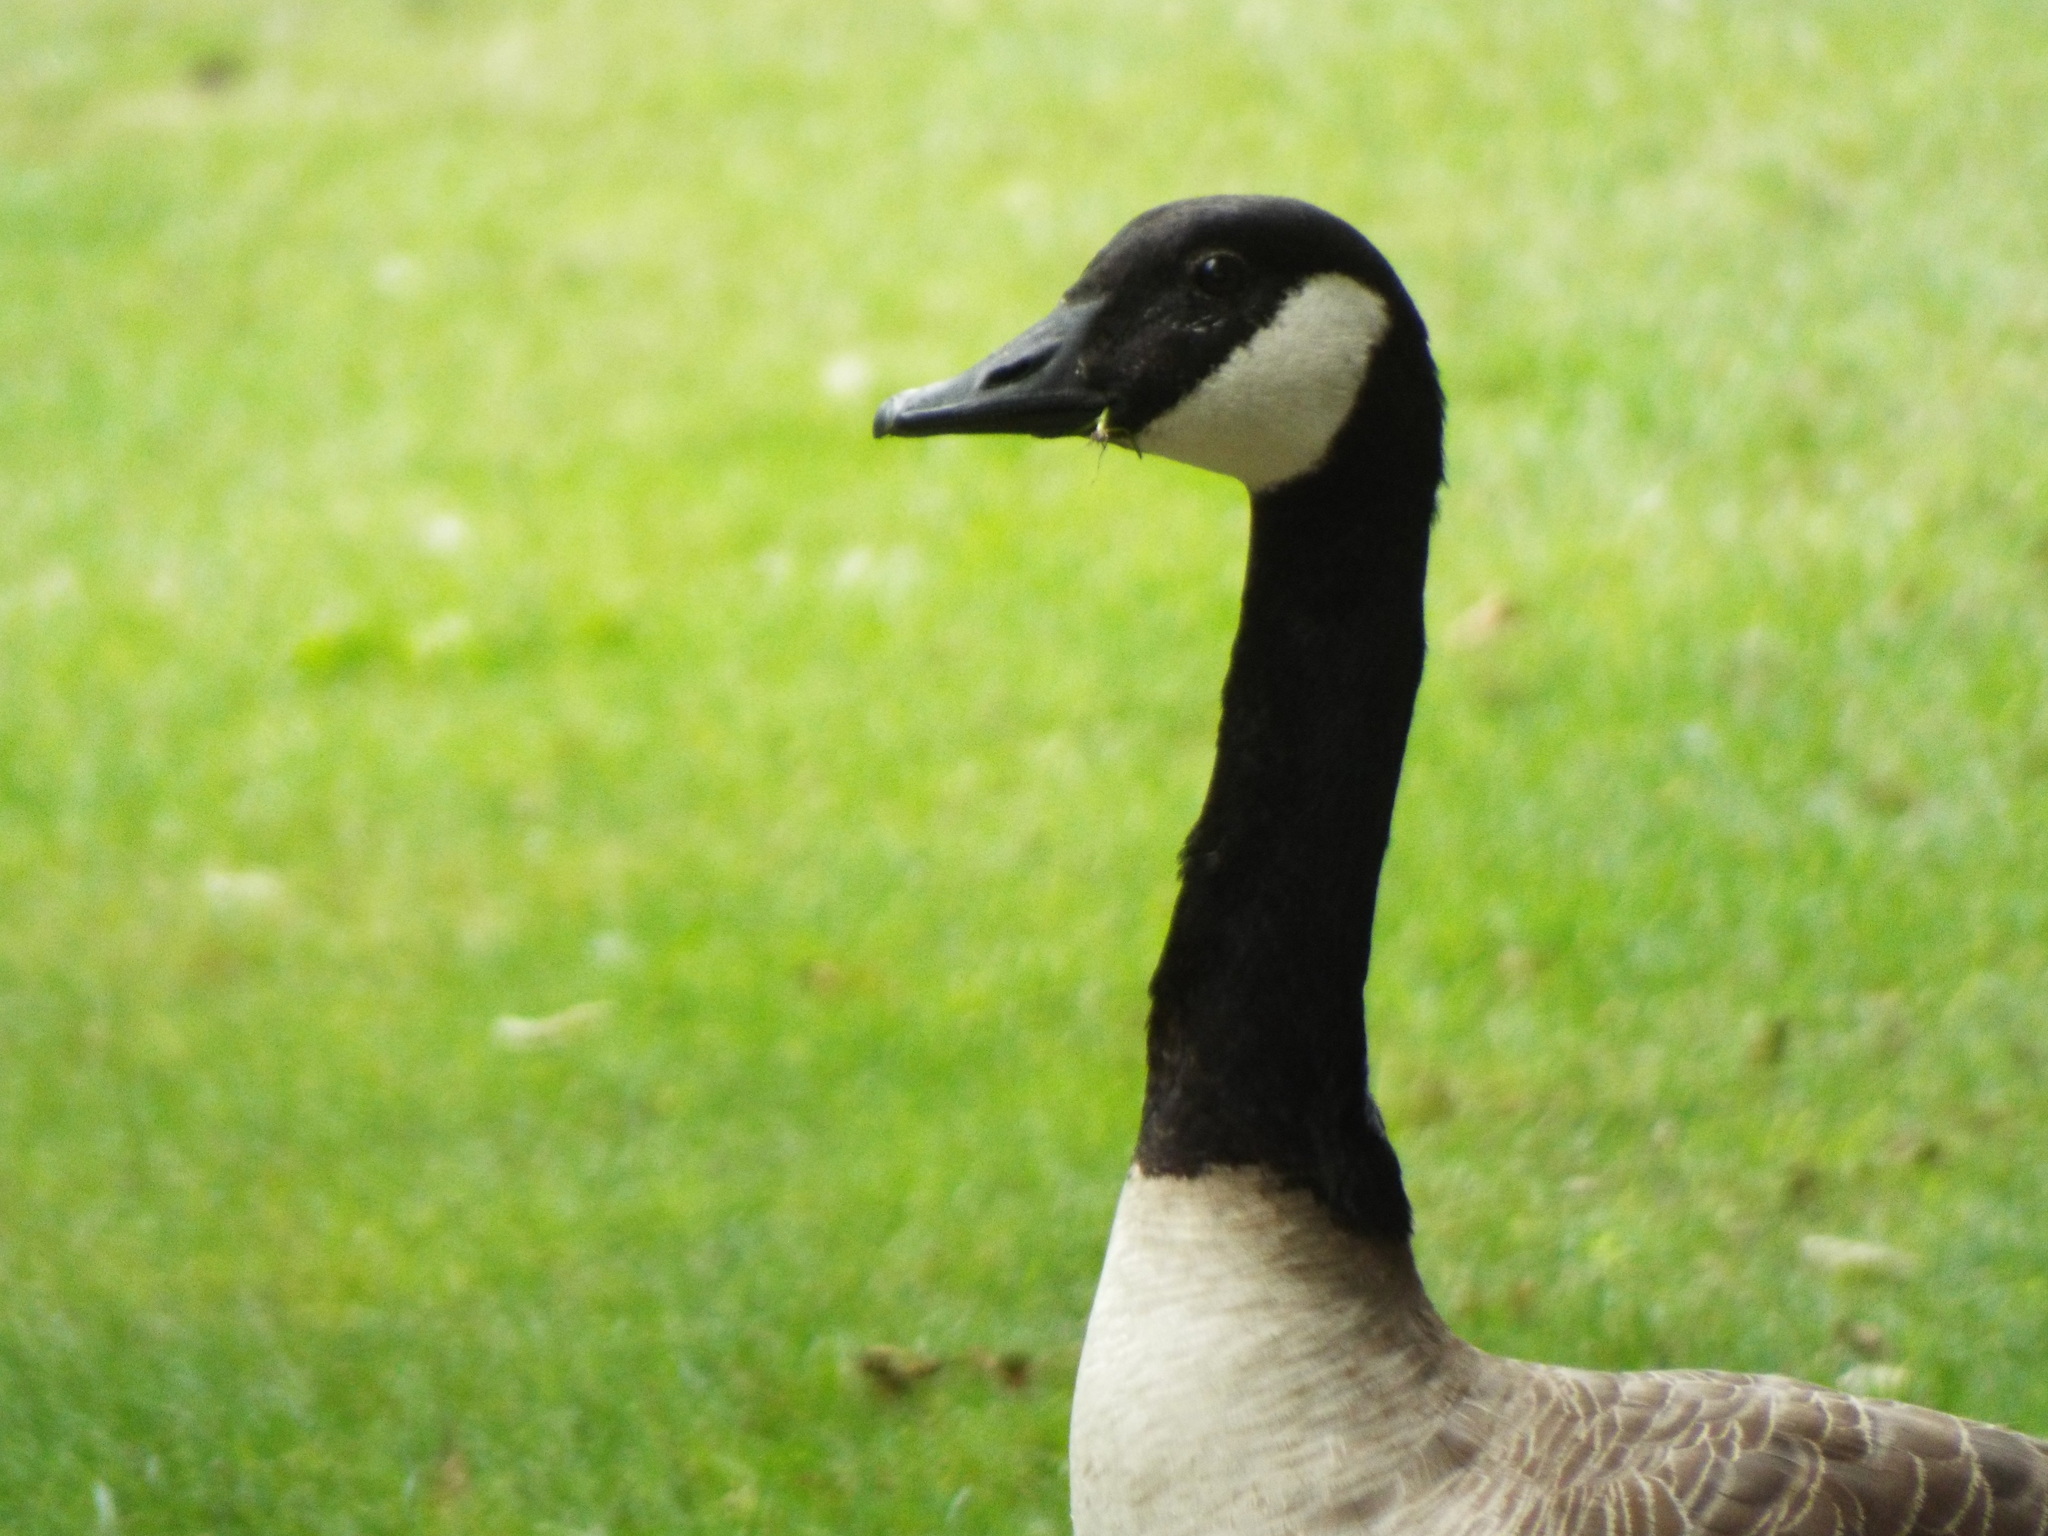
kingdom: Animalia
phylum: Chordata
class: Aves
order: Anseriformes
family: Anatidae
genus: Branta
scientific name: Branta canadensis
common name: Canada goose
